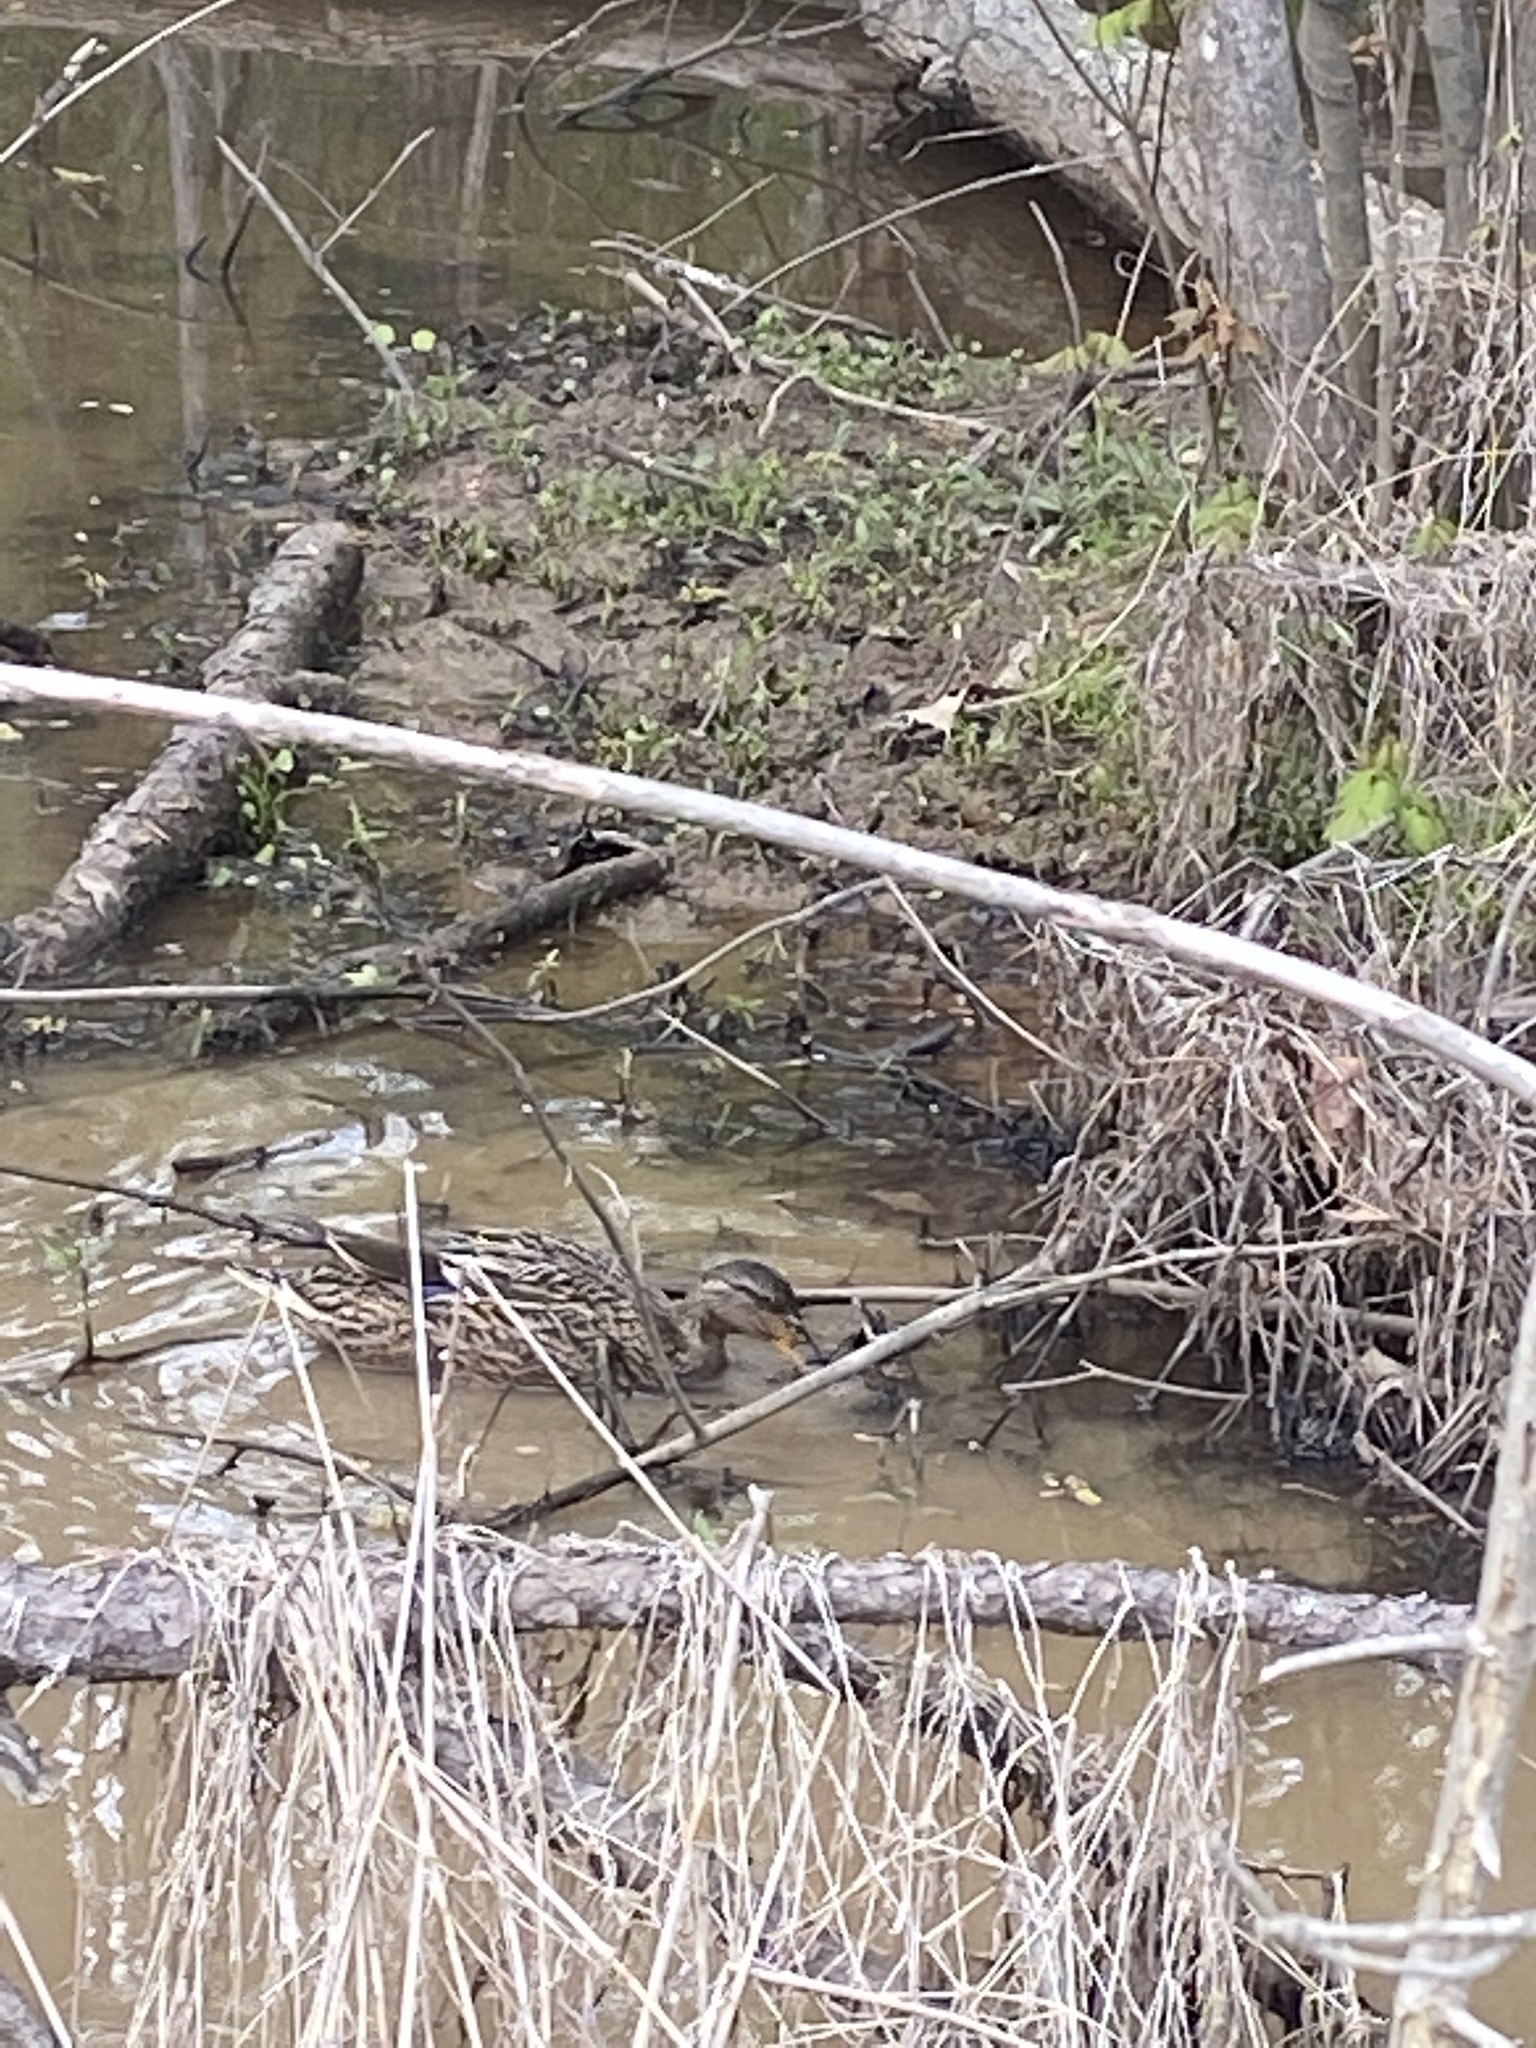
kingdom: Animalia
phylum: Chordata
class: Aves
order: Anseriformes
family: Anatidae
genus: Anas
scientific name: Anas platyrhynchos
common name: Mallard
